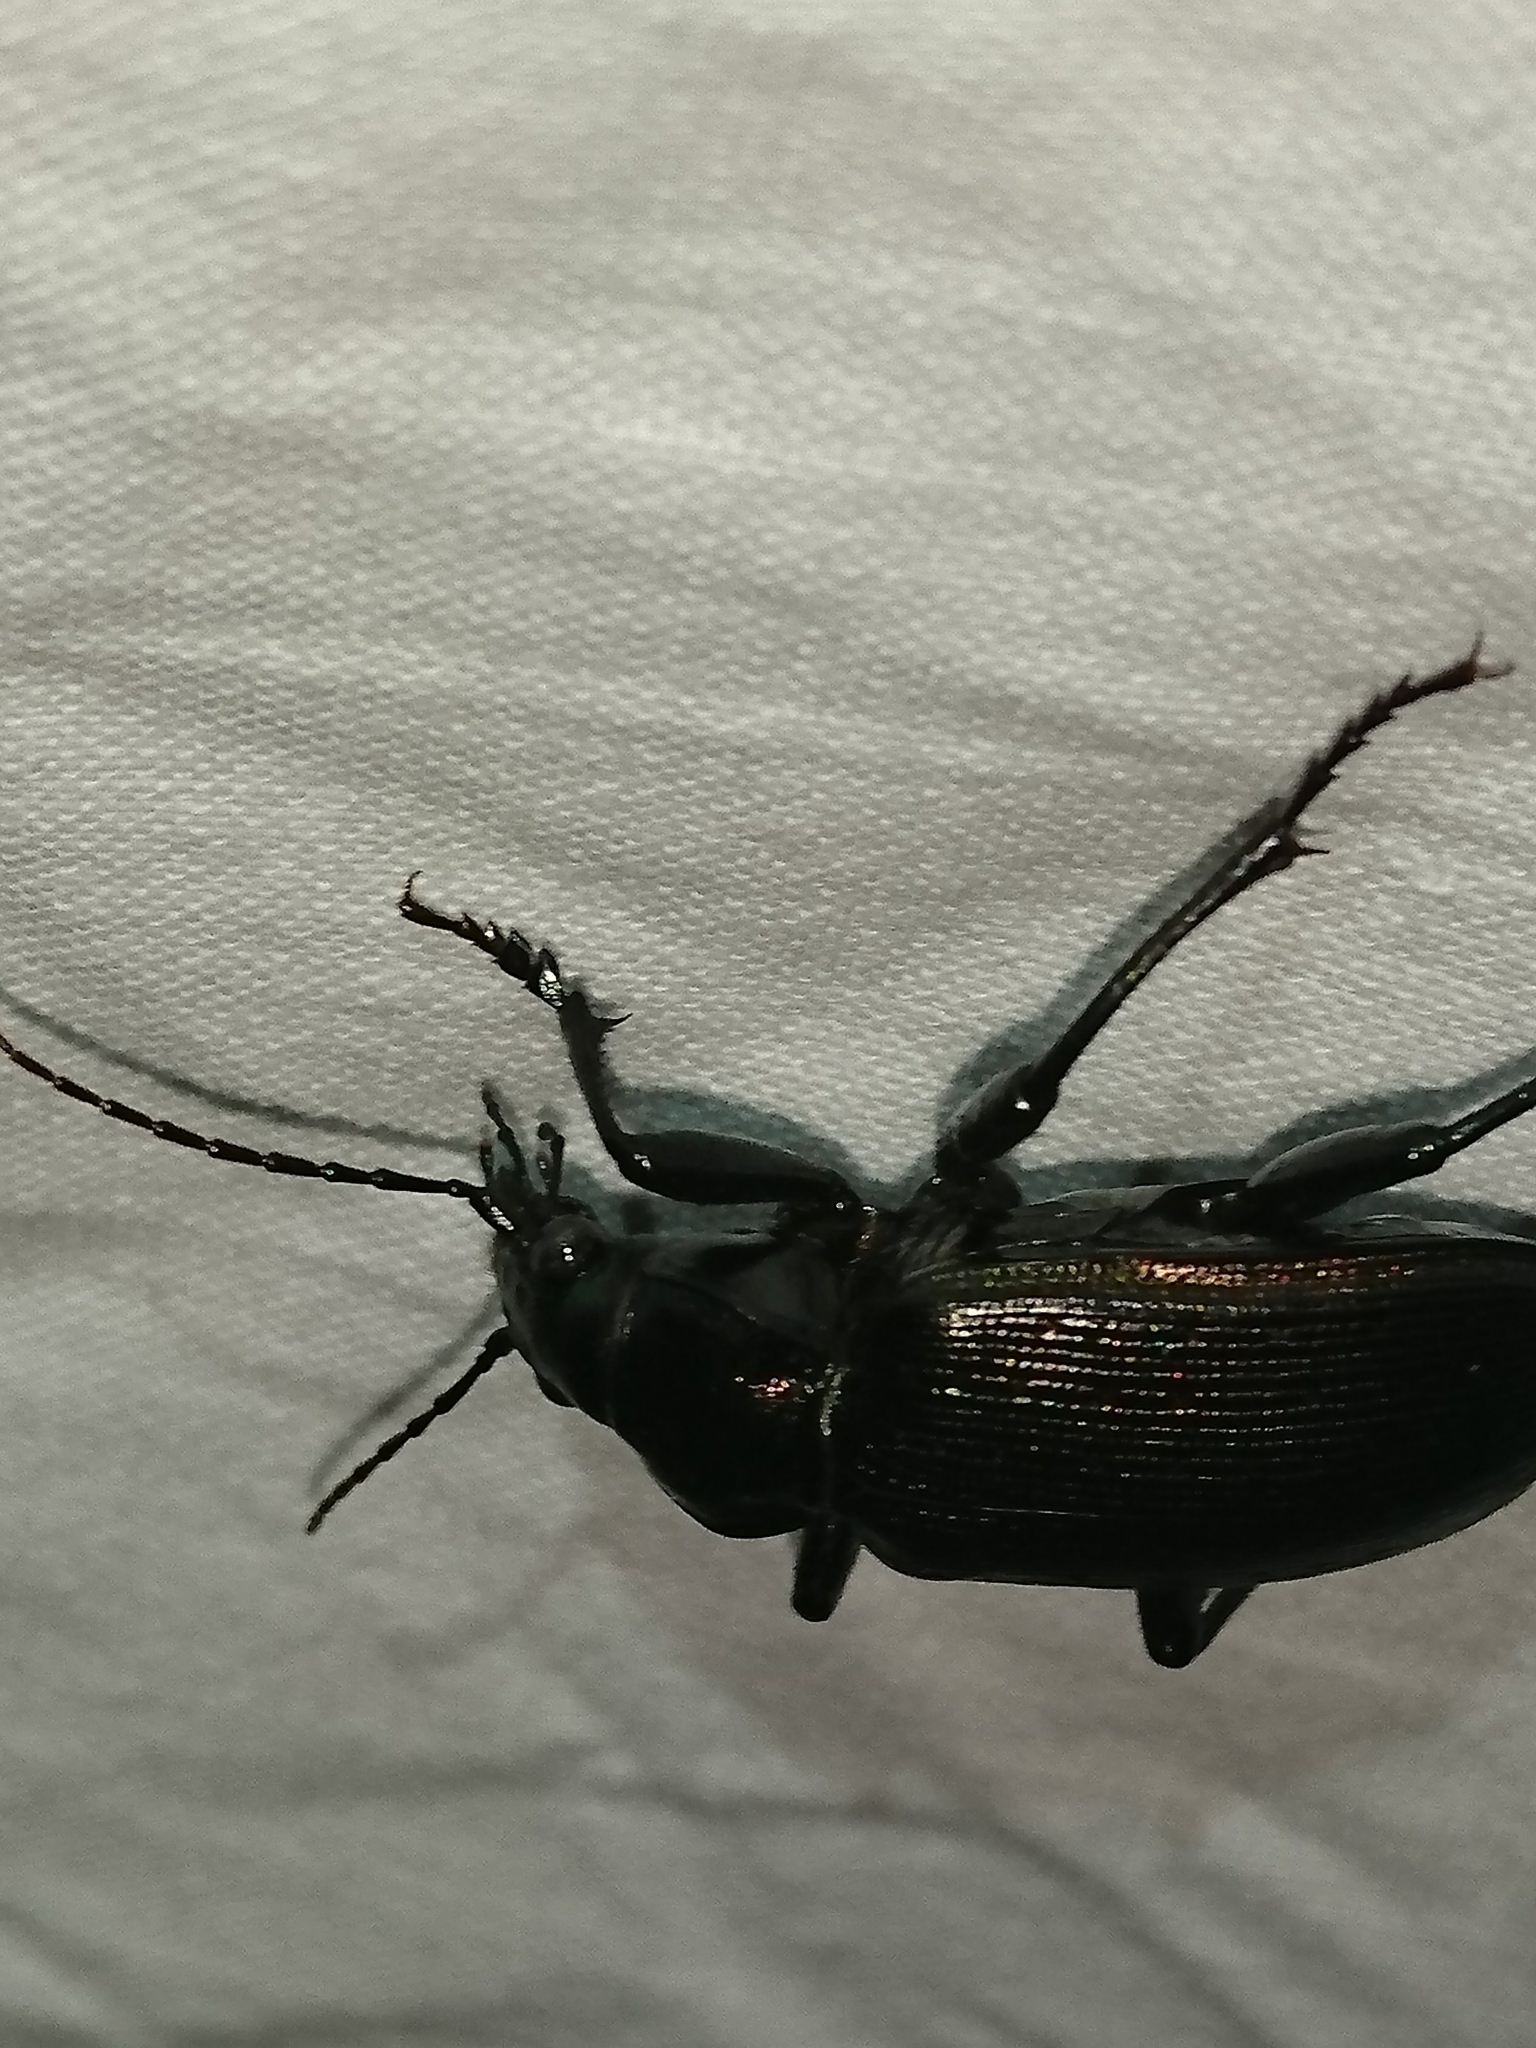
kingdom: Animalia
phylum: Arthropoda
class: Insecta
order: Coleoptera
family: Carabidae
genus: Calosoma
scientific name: Calosoma sayi
